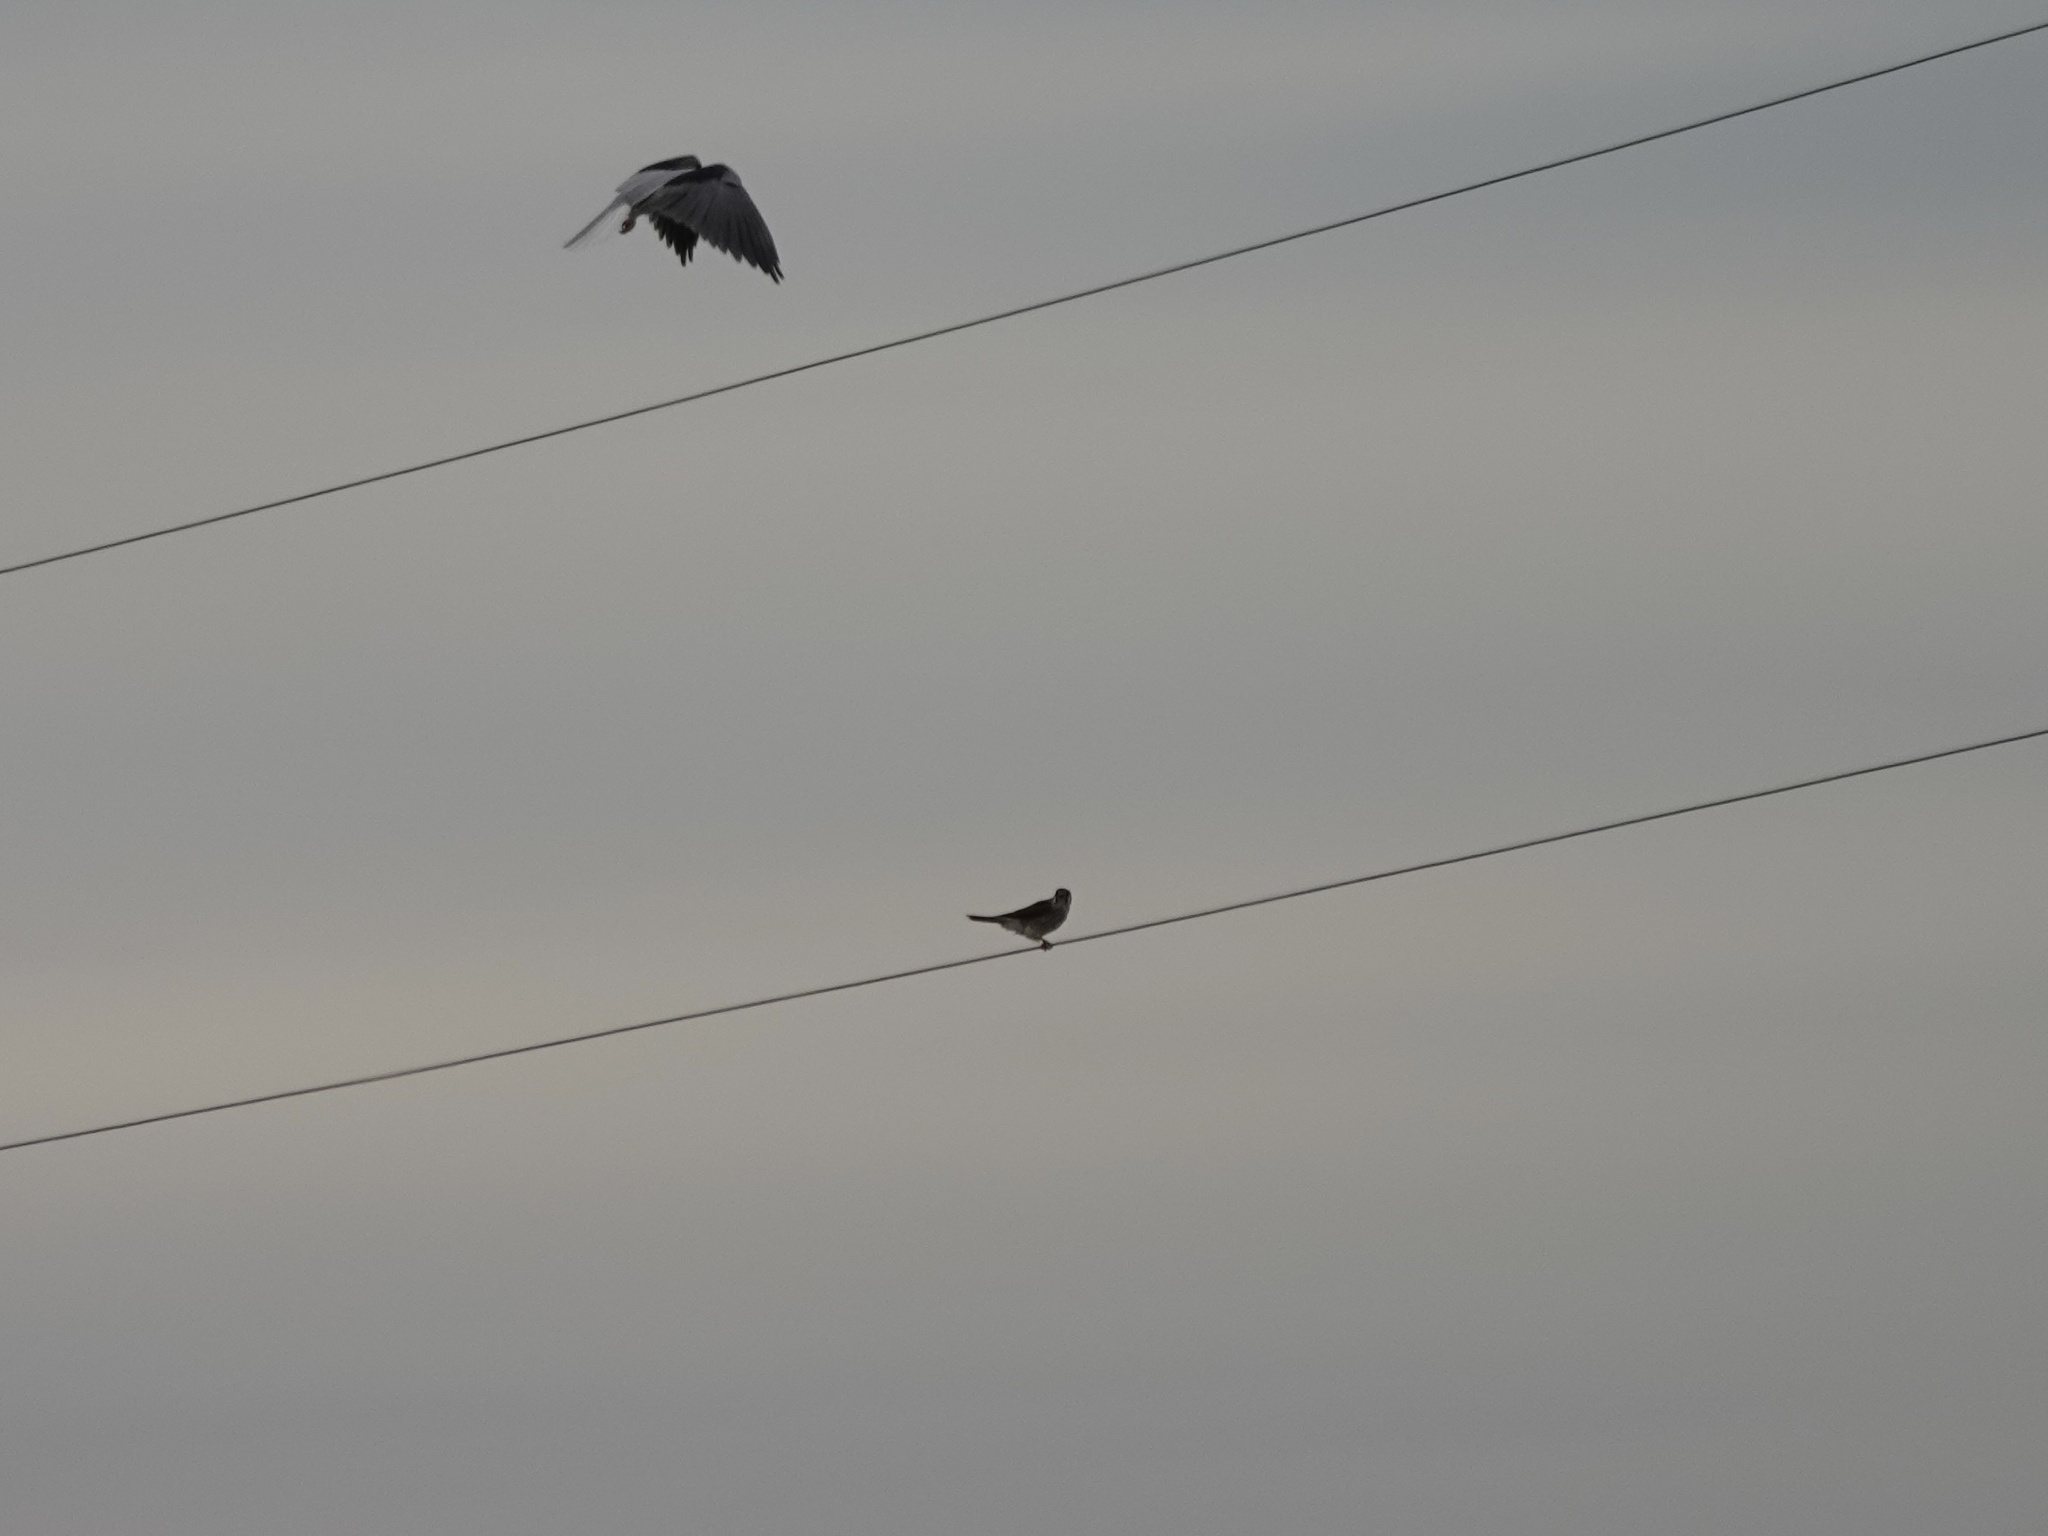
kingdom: Animalia
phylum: Chordata
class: Aves
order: Falconiformes
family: Falconidae
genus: Falco
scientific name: Falco sparverius
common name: American kestrel
